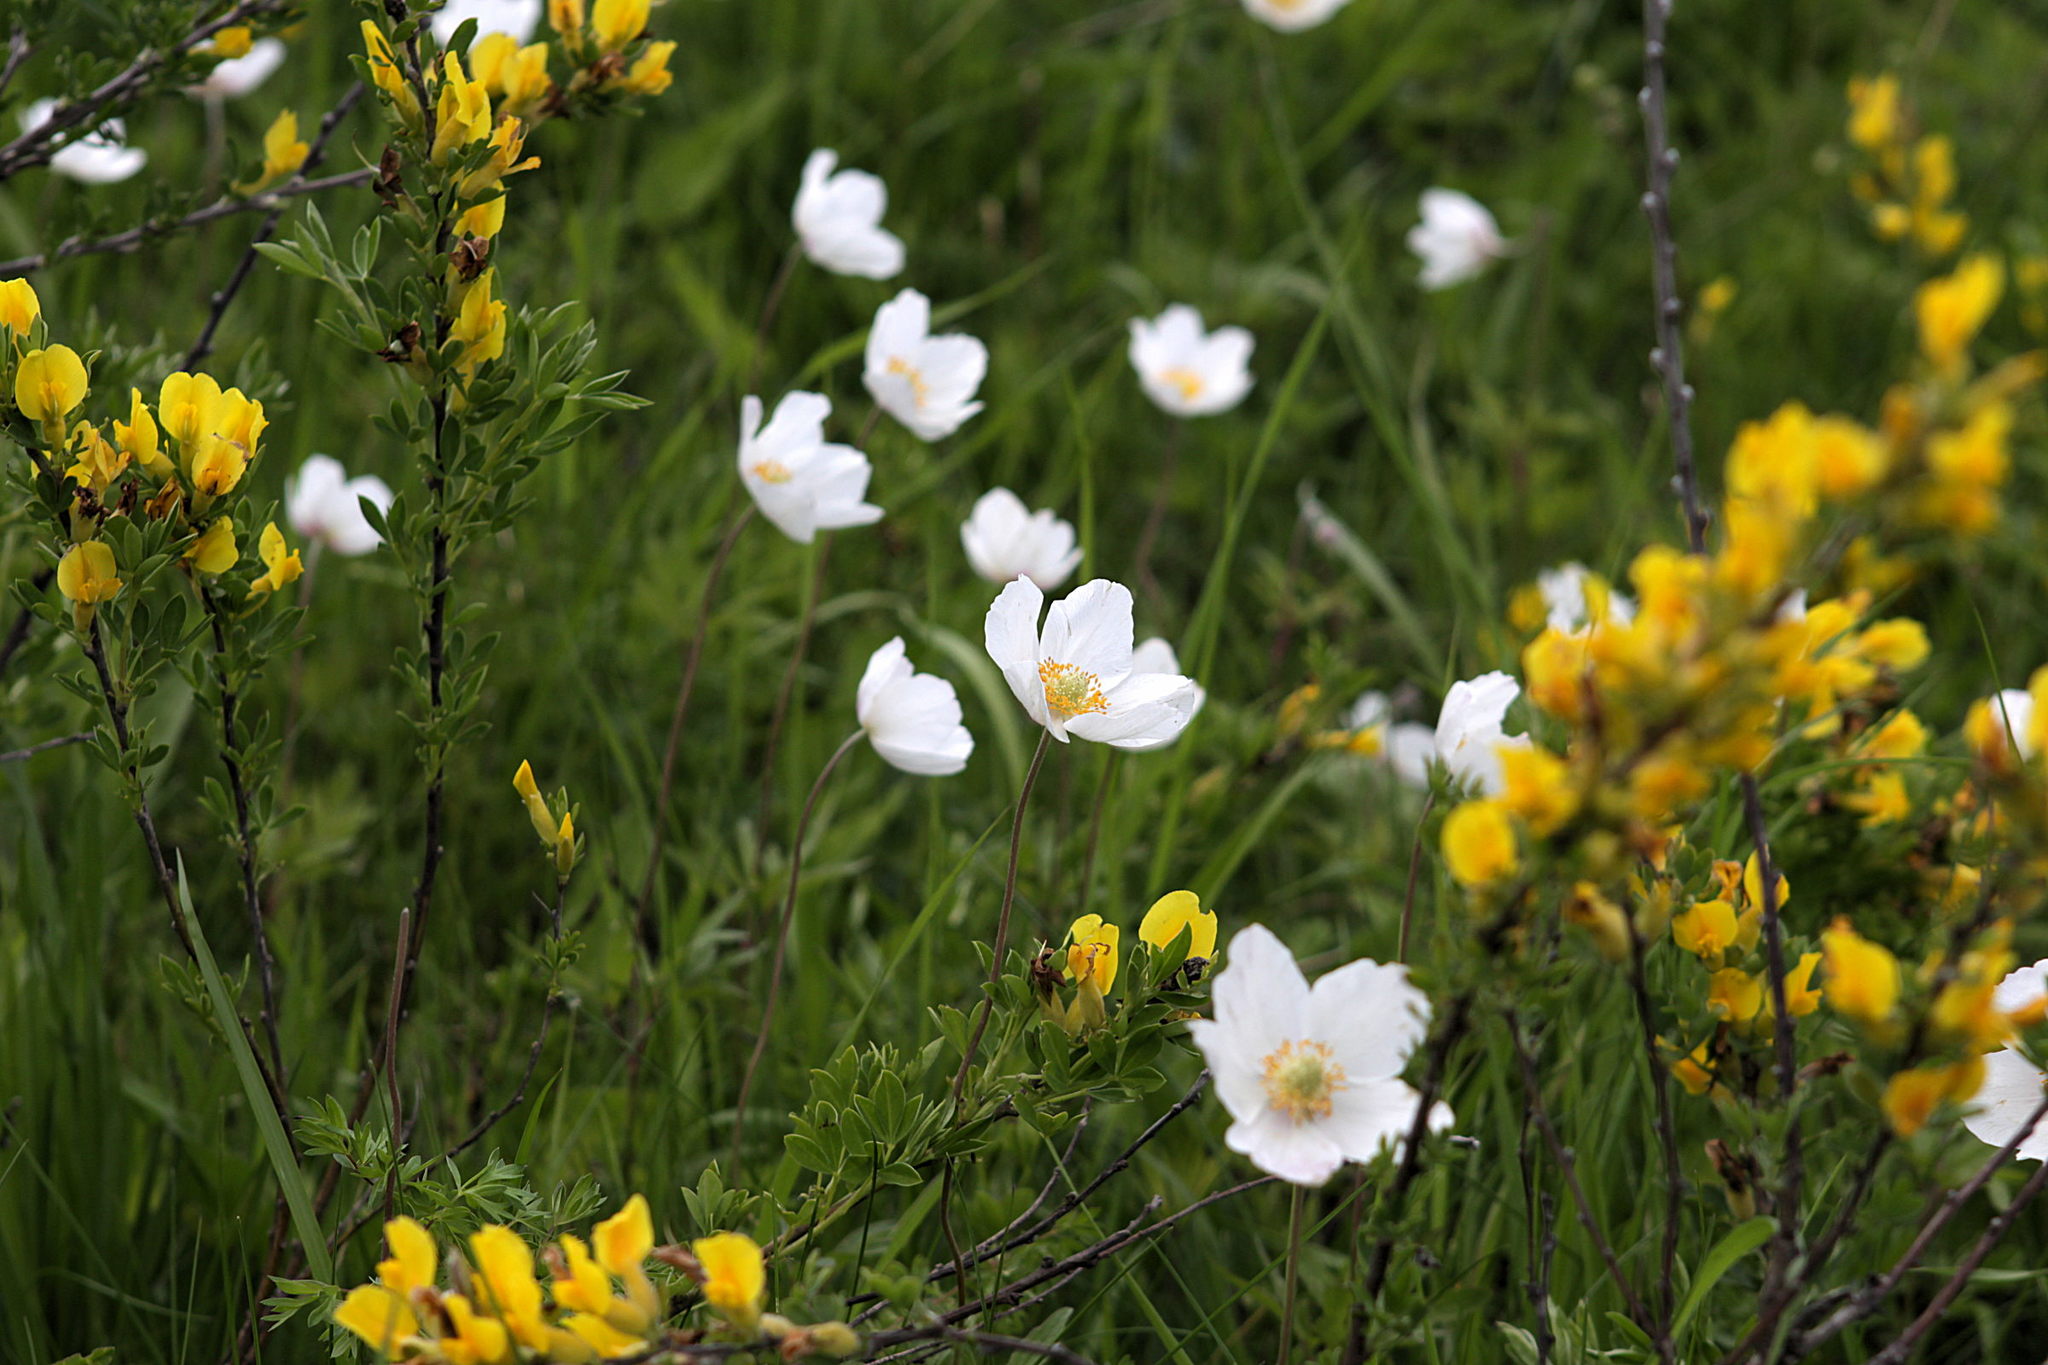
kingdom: Plantae
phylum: Tracheophyta
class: Magnoliopsida
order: Ranunculales
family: Ranunculaceae
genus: Anemone
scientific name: Anemone sylvestris
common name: Snowdrop anemone
